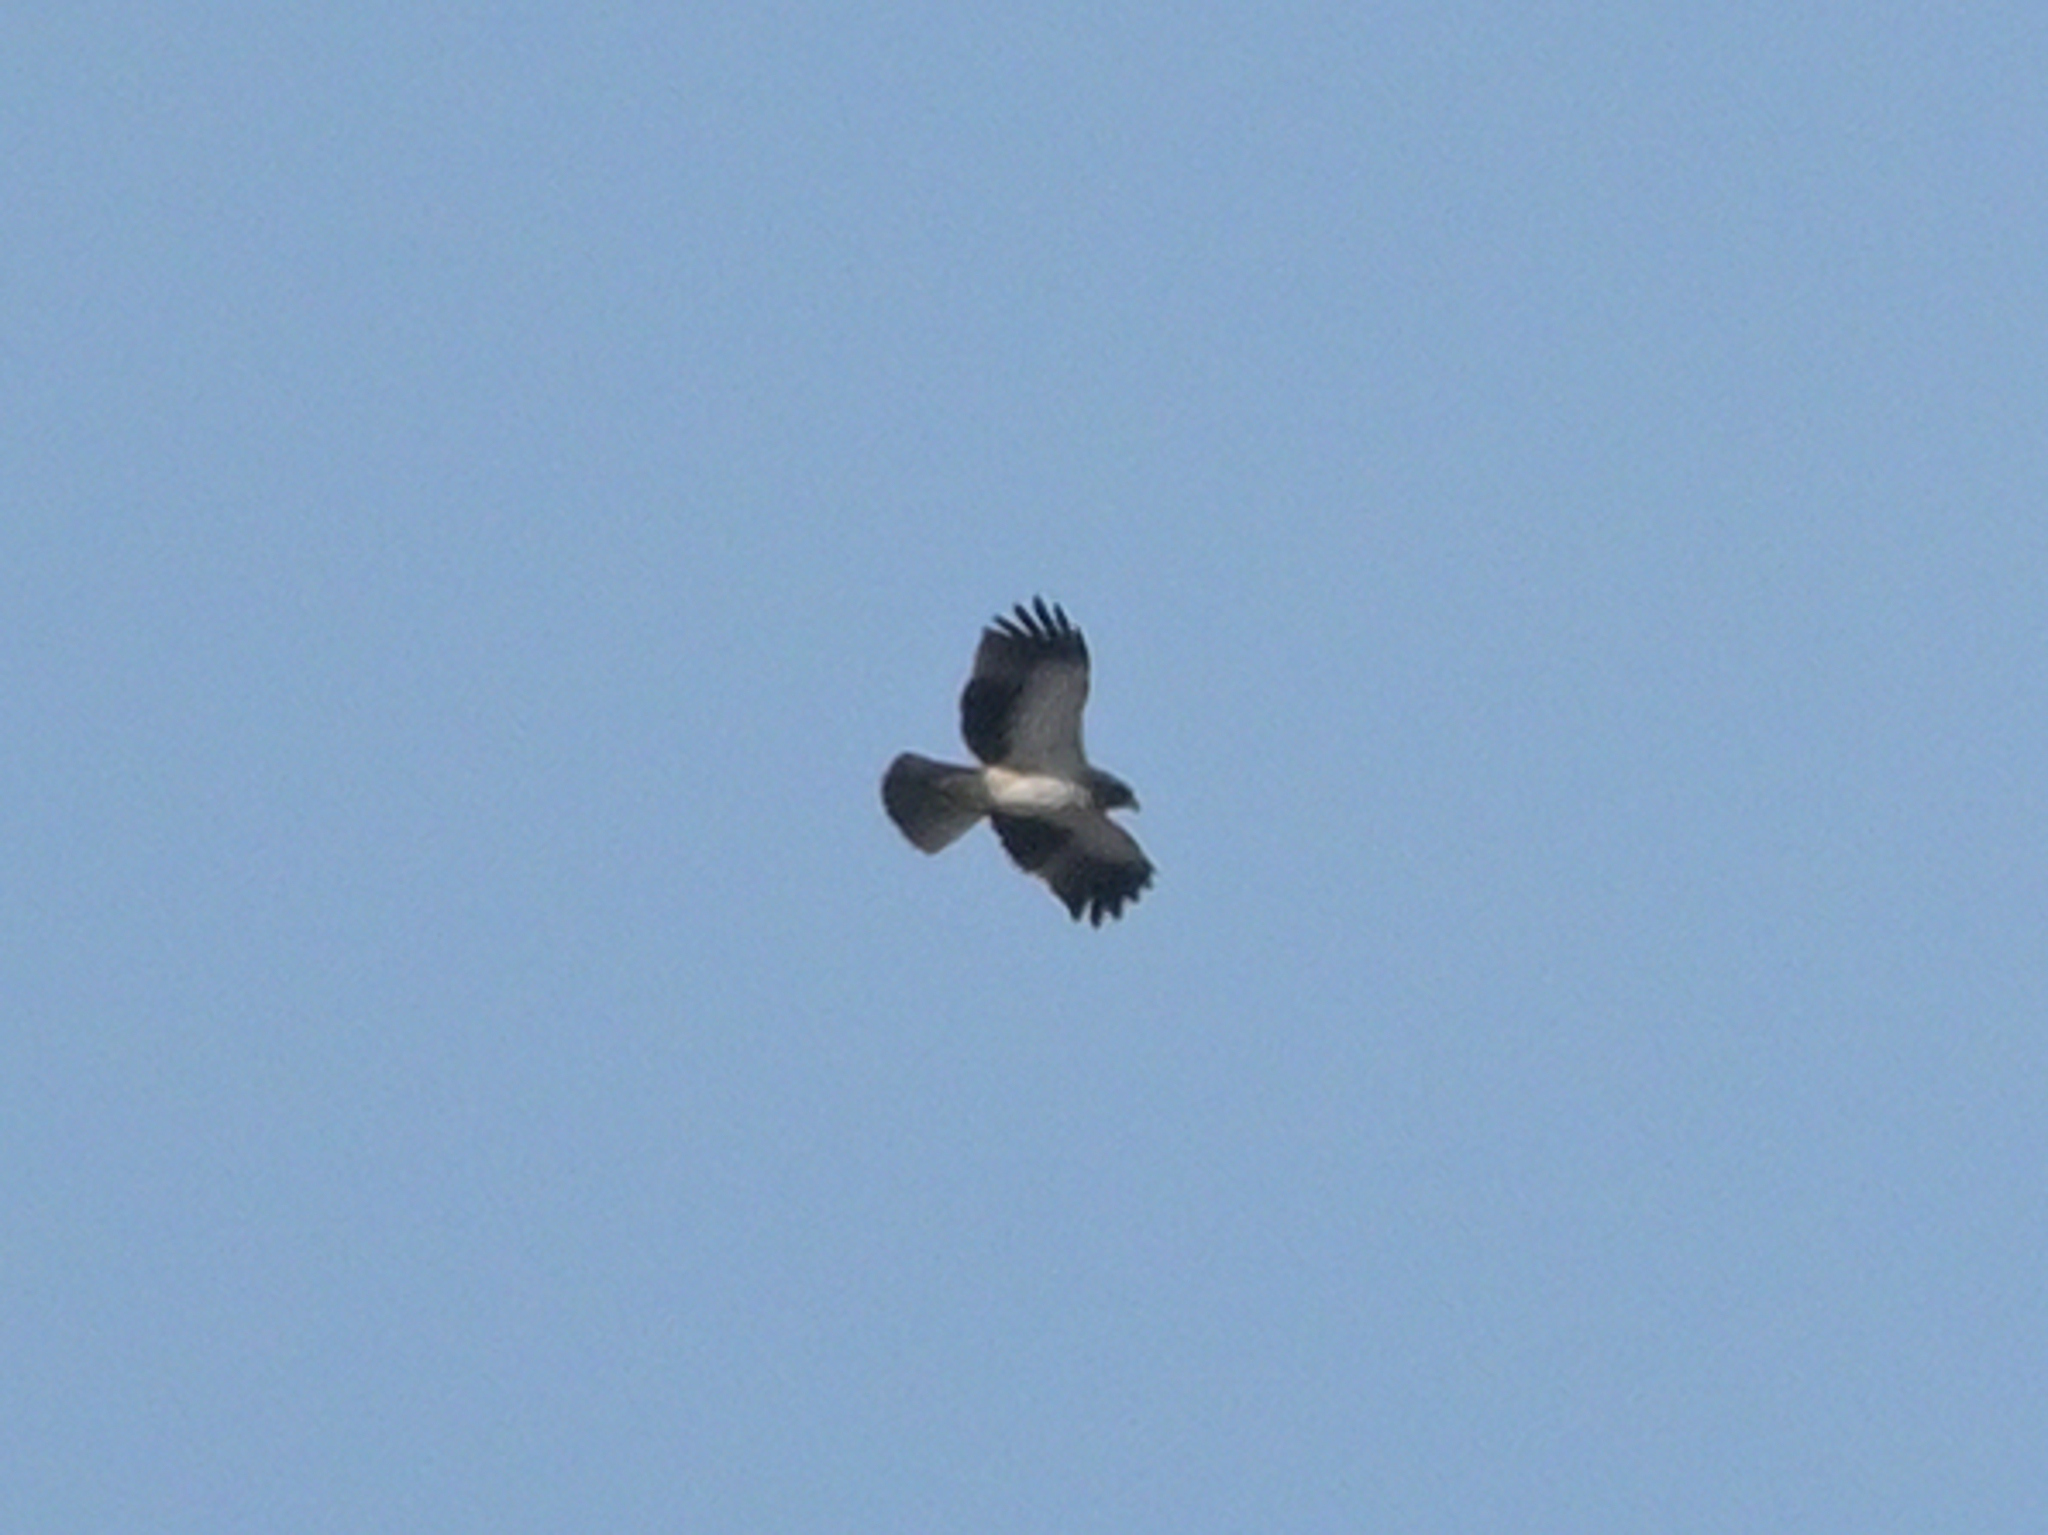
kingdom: Animalia
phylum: Chordata
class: Aves
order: Accipitriformes
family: Accipitridae
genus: Hieraaetus
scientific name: Hieraaetus pennatus
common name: Booted eagle
